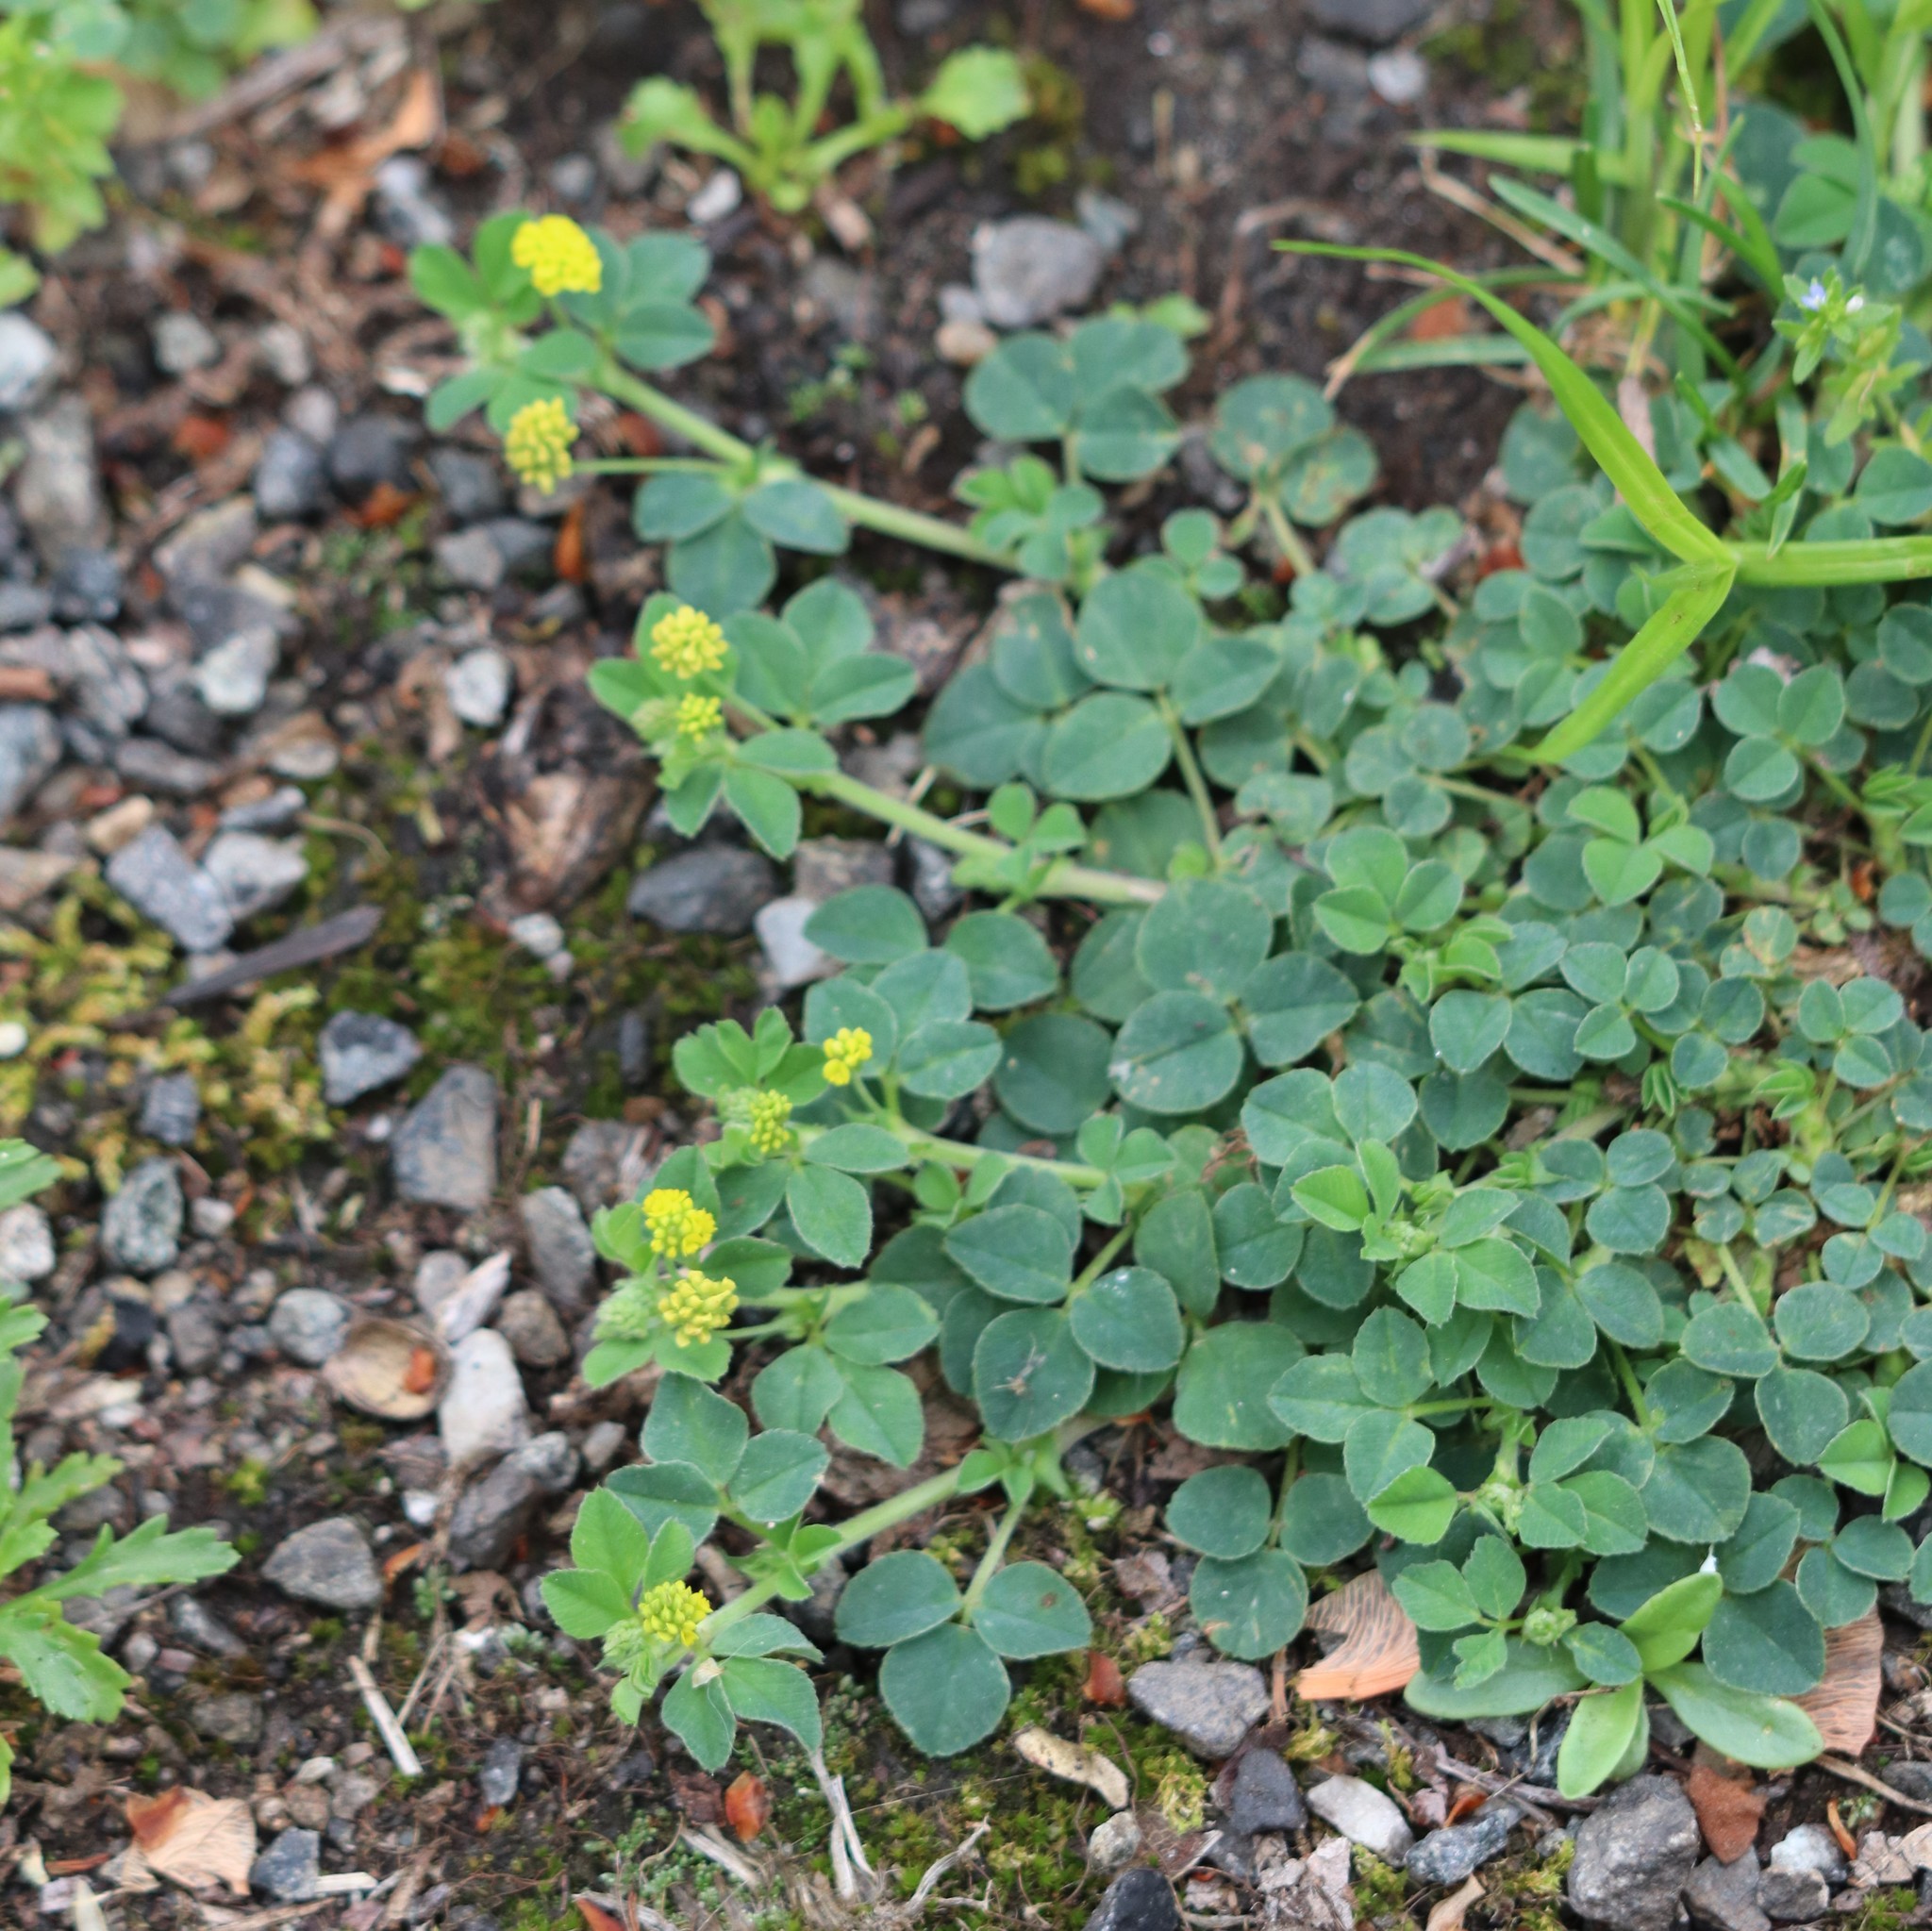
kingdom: Plantae
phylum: Tracheophyta
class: Magnoliopsida
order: Fabales
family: Fabaceae
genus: Medicago
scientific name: Medicago lupulina
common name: Black medick
